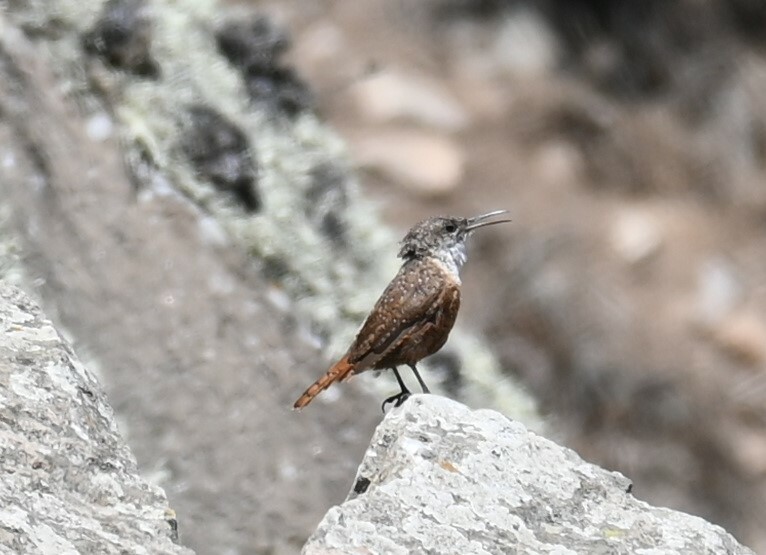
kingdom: Animalia
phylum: Chordata
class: Aves
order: Passeriformes
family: Troglodytidae
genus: Catherpes
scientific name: Catherpes mexicanus
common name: Canyon wren
